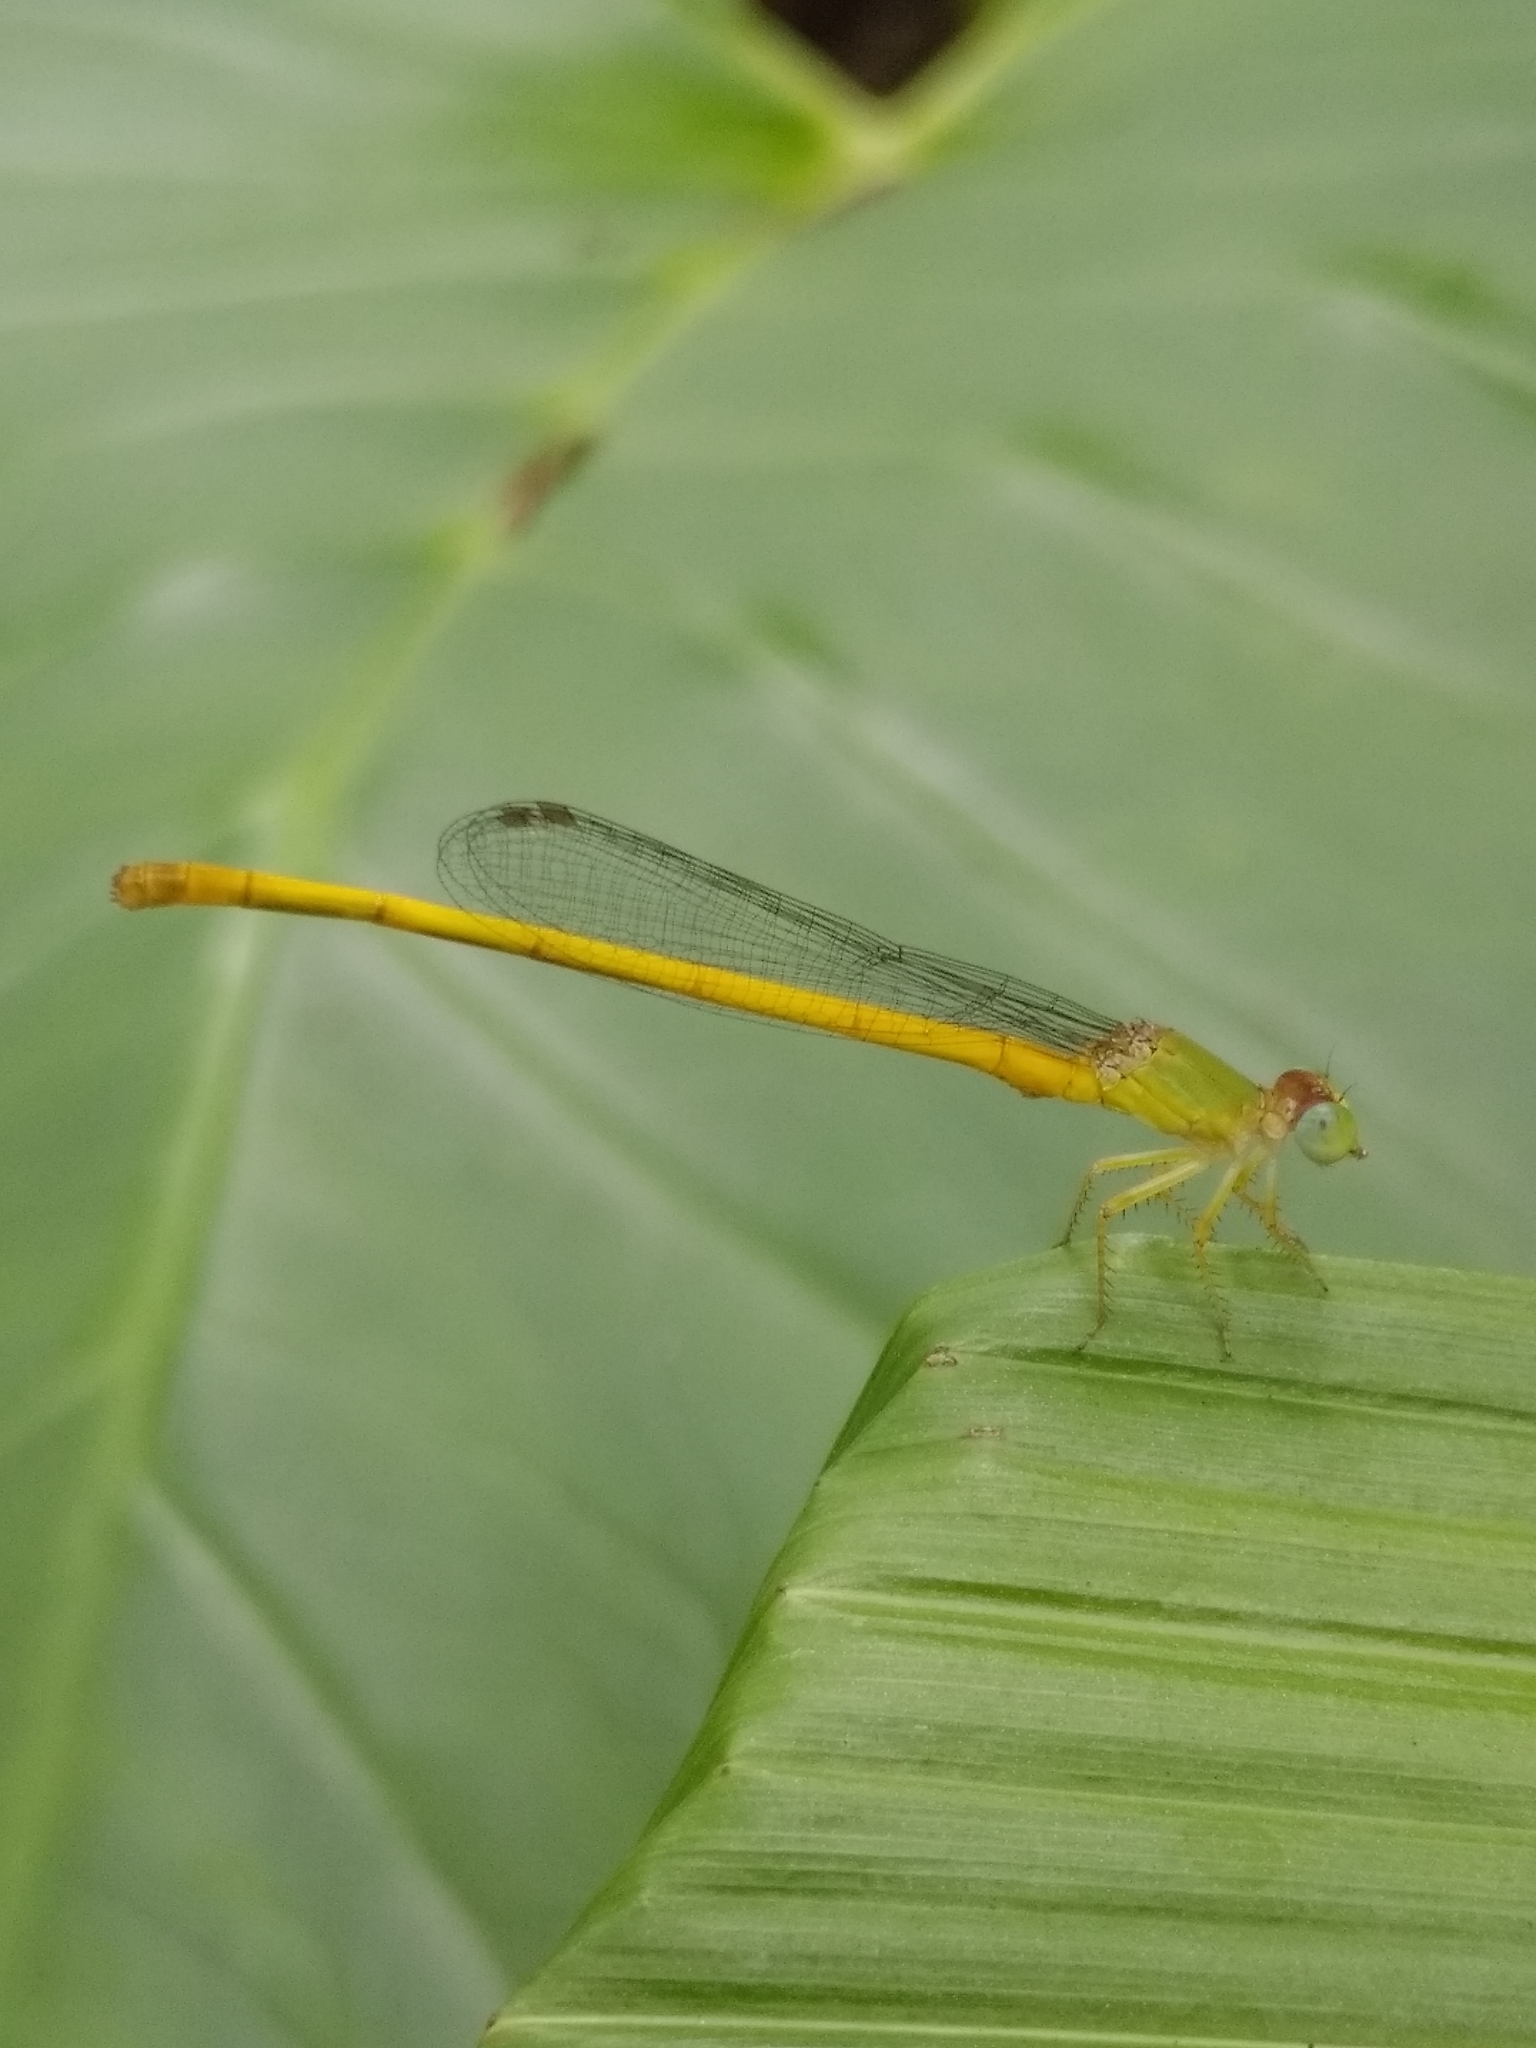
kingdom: Animalia
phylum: Arthropoda
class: Insecta
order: Odonata
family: Coenagrionidae
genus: Ceriagrion
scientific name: Ceriagrion coromandelianum
